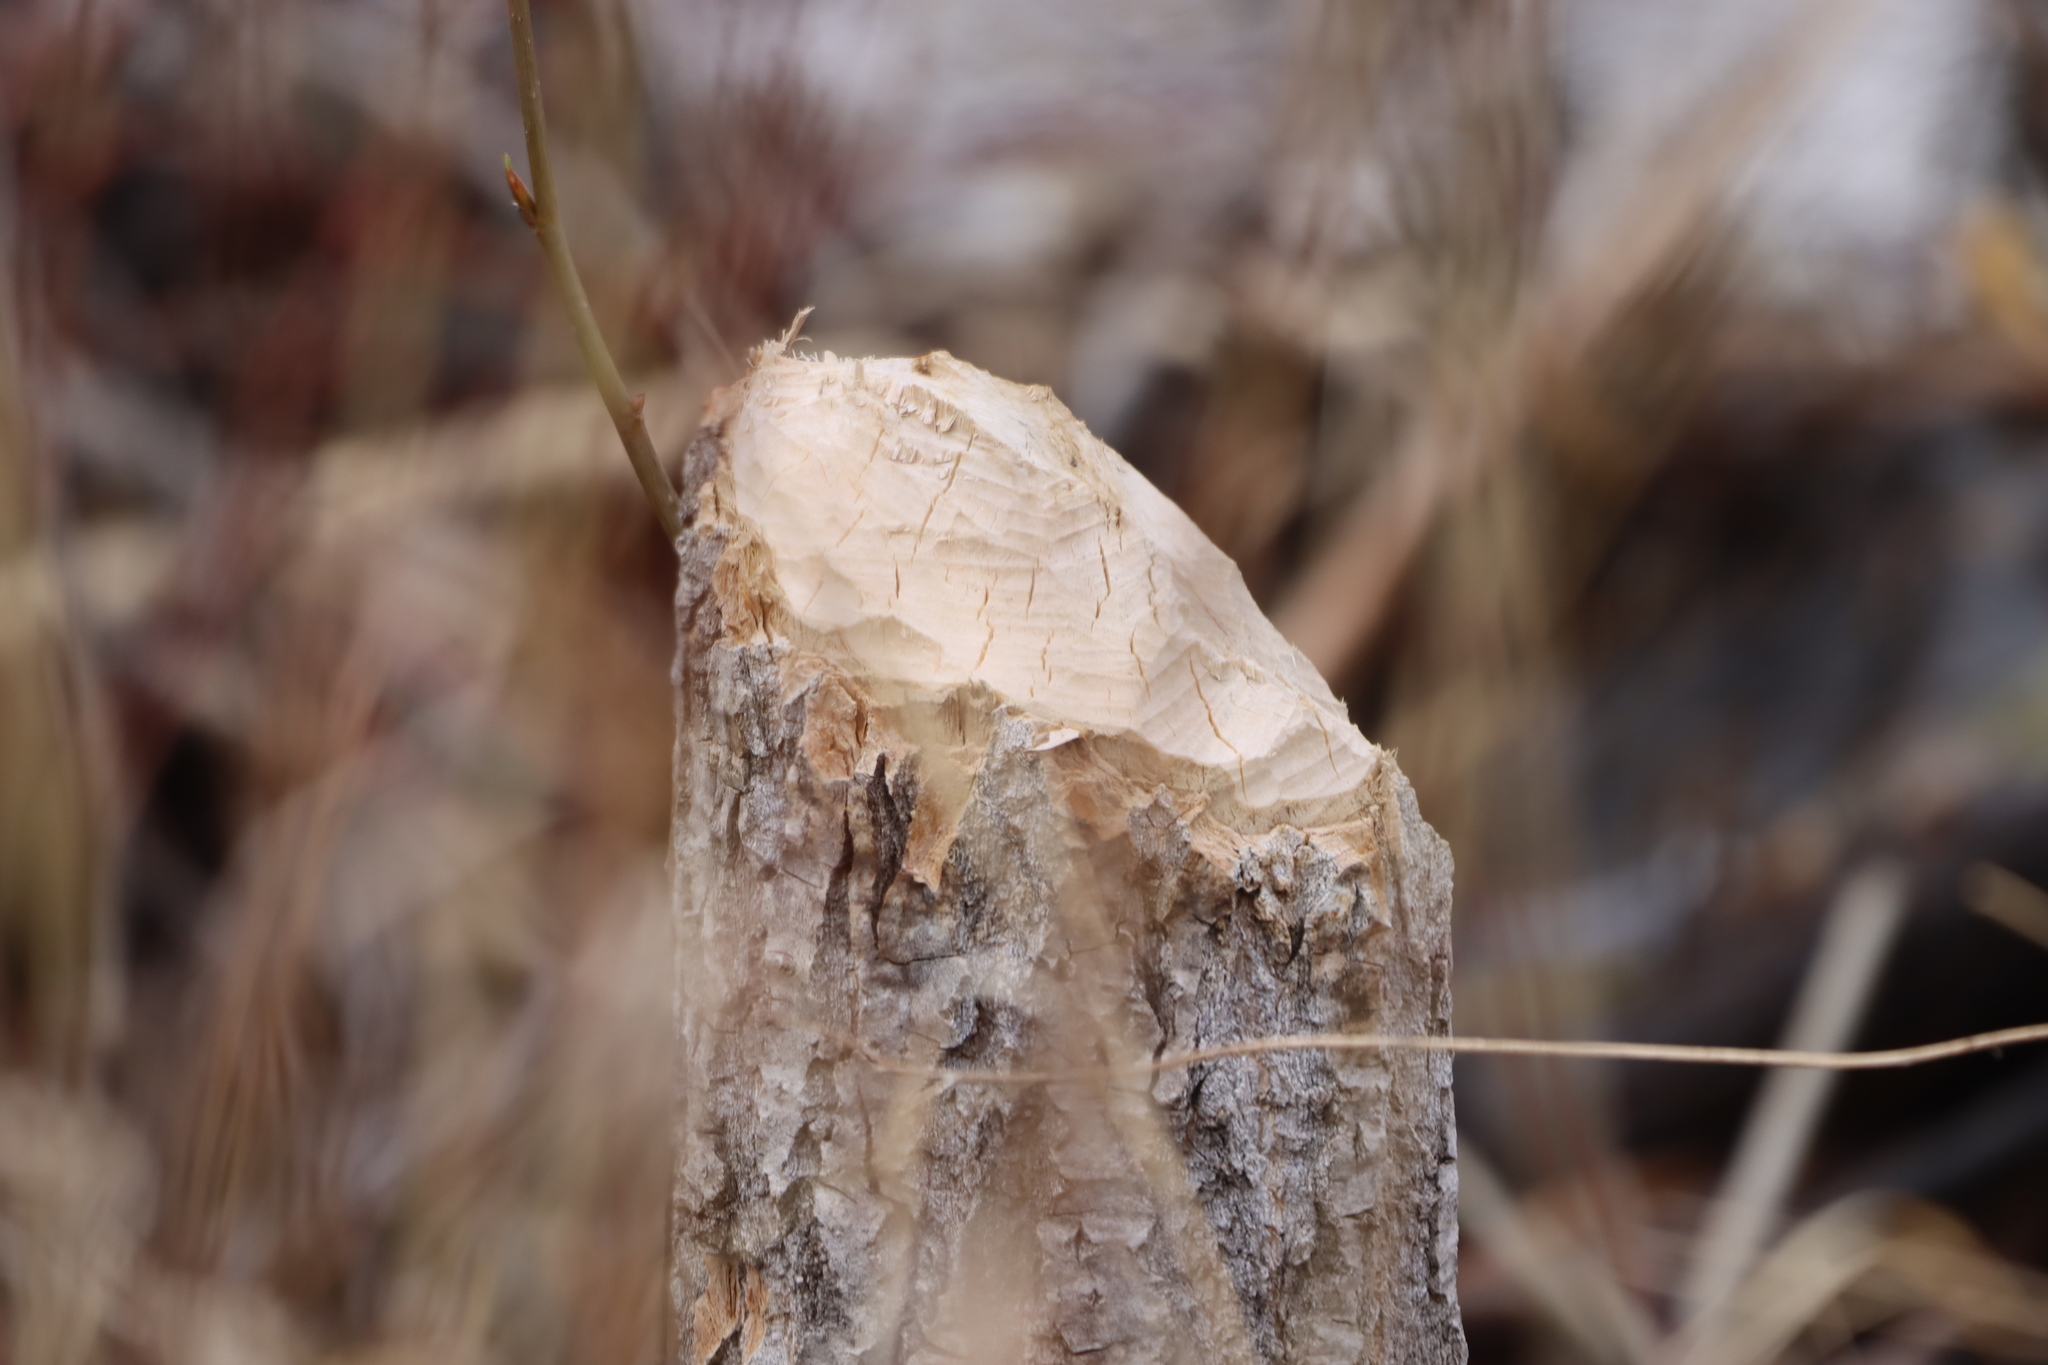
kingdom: Animalia
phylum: Chordata
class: Mammalia
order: Rodentia
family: Castoridae
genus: Castor
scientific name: Castor canadensis
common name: American beaver
